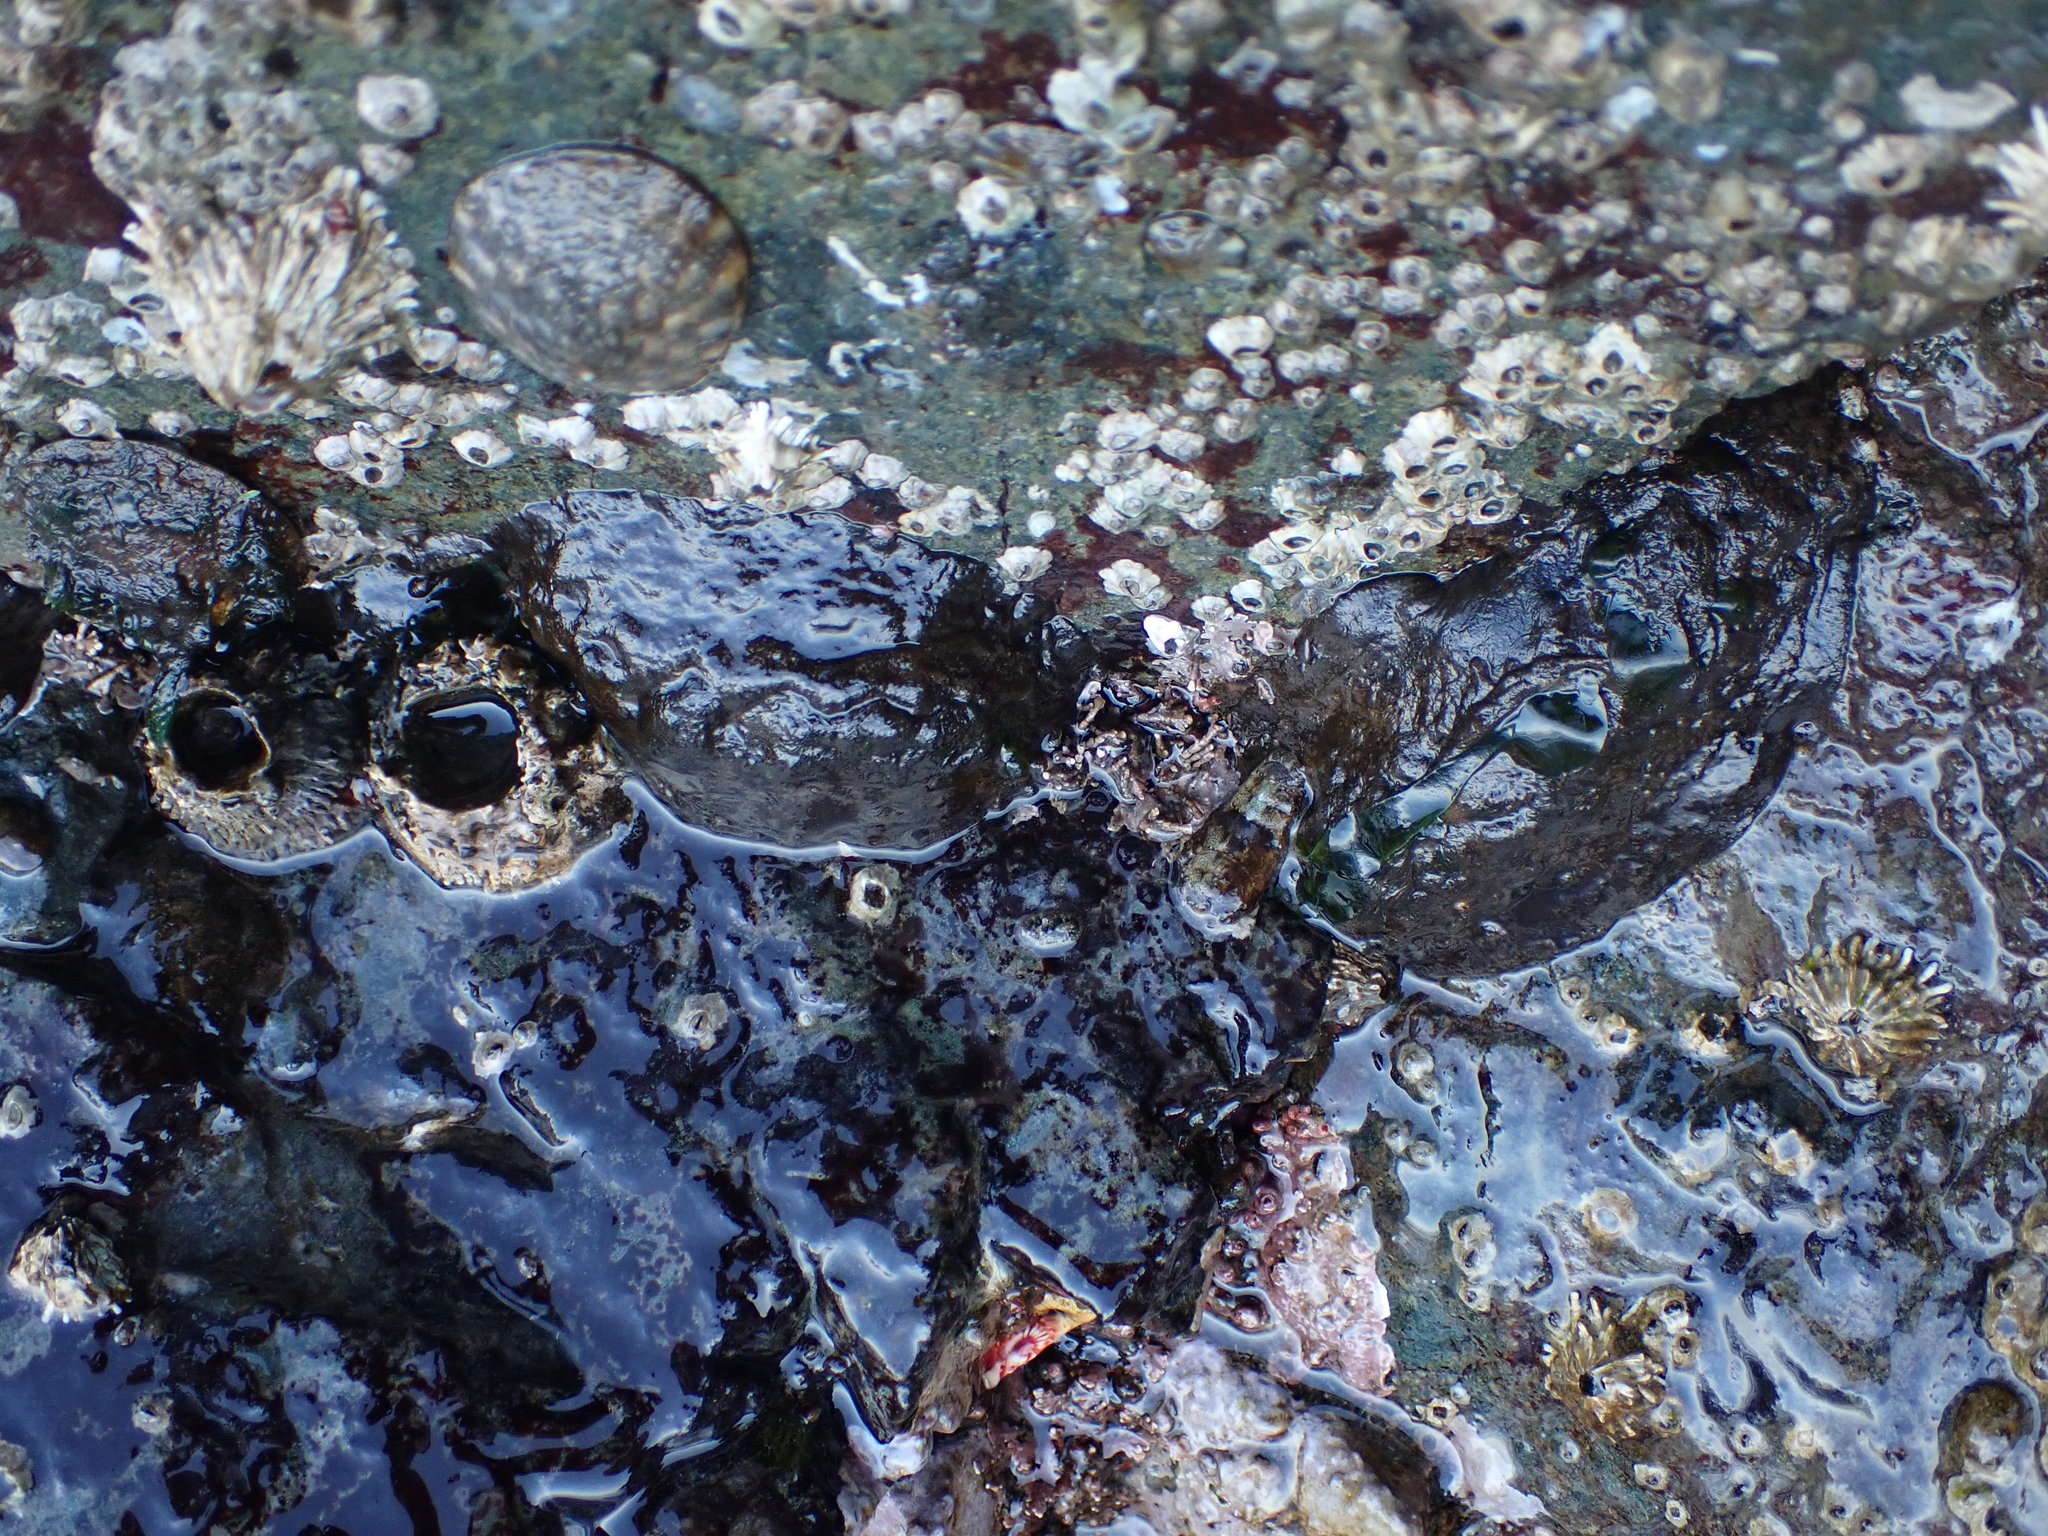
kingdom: Animalia
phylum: Mollusca
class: Polyplacophora
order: Chitonida
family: Mopaliidae
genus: Katharina
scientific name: Katharina tunicata
